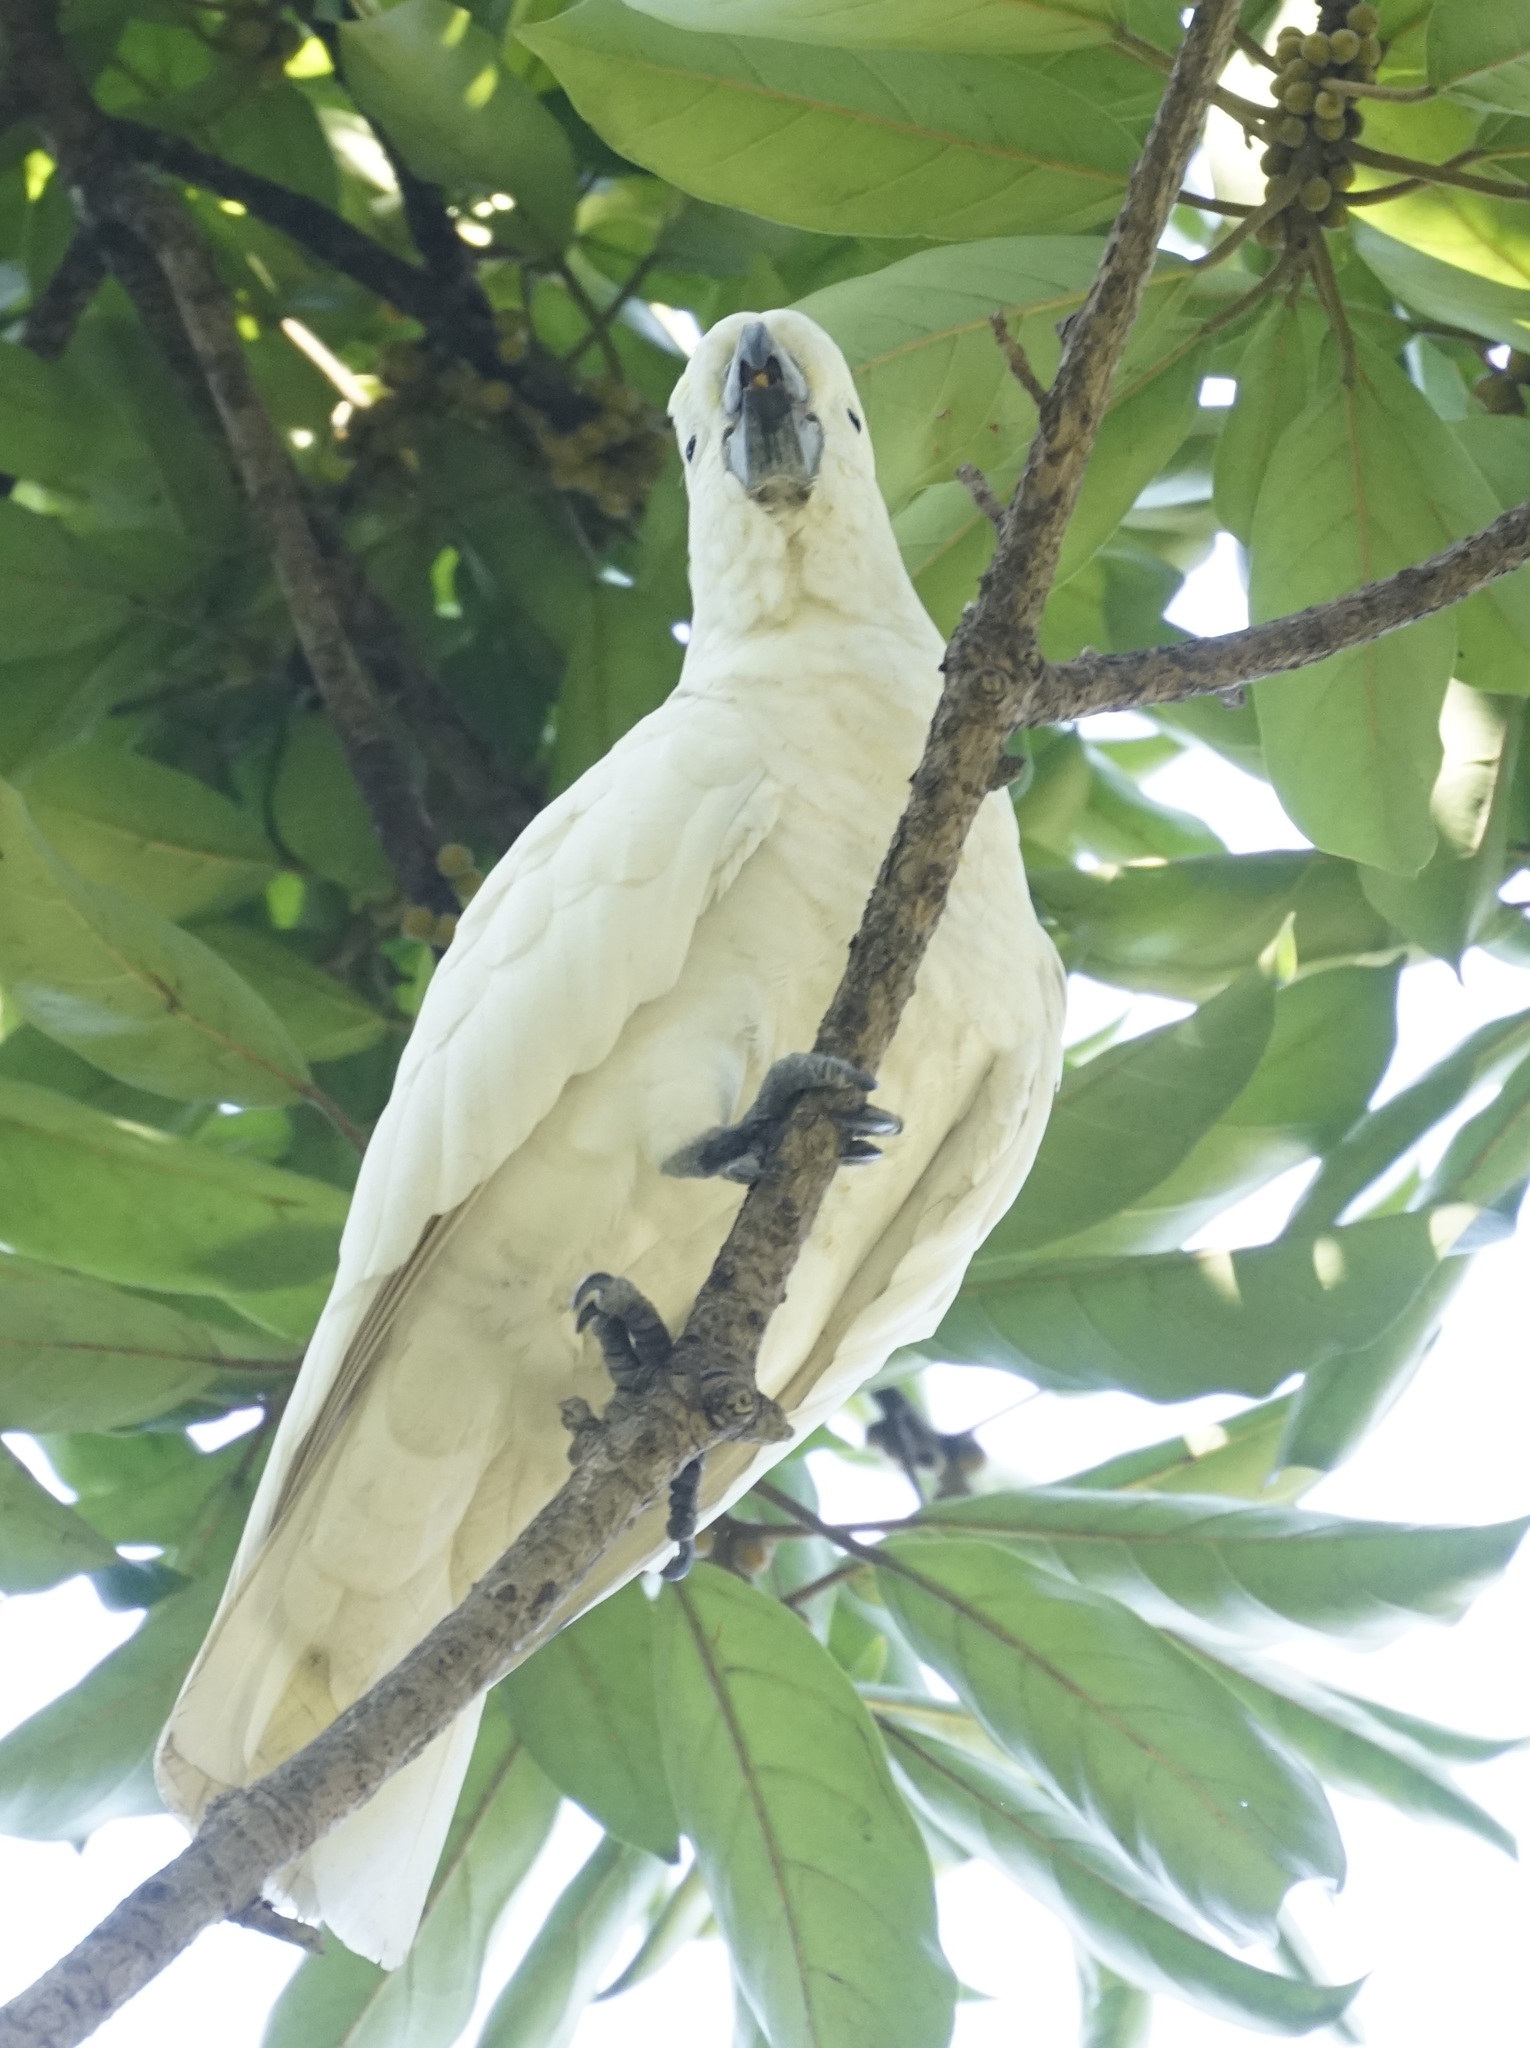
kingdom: Animalia
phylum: Chordata
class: Aves
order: Psittaciformes
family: Psittacidae
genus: Cacatua
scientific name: Cacatua galerita
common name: Sulphur-crested cockatoo
